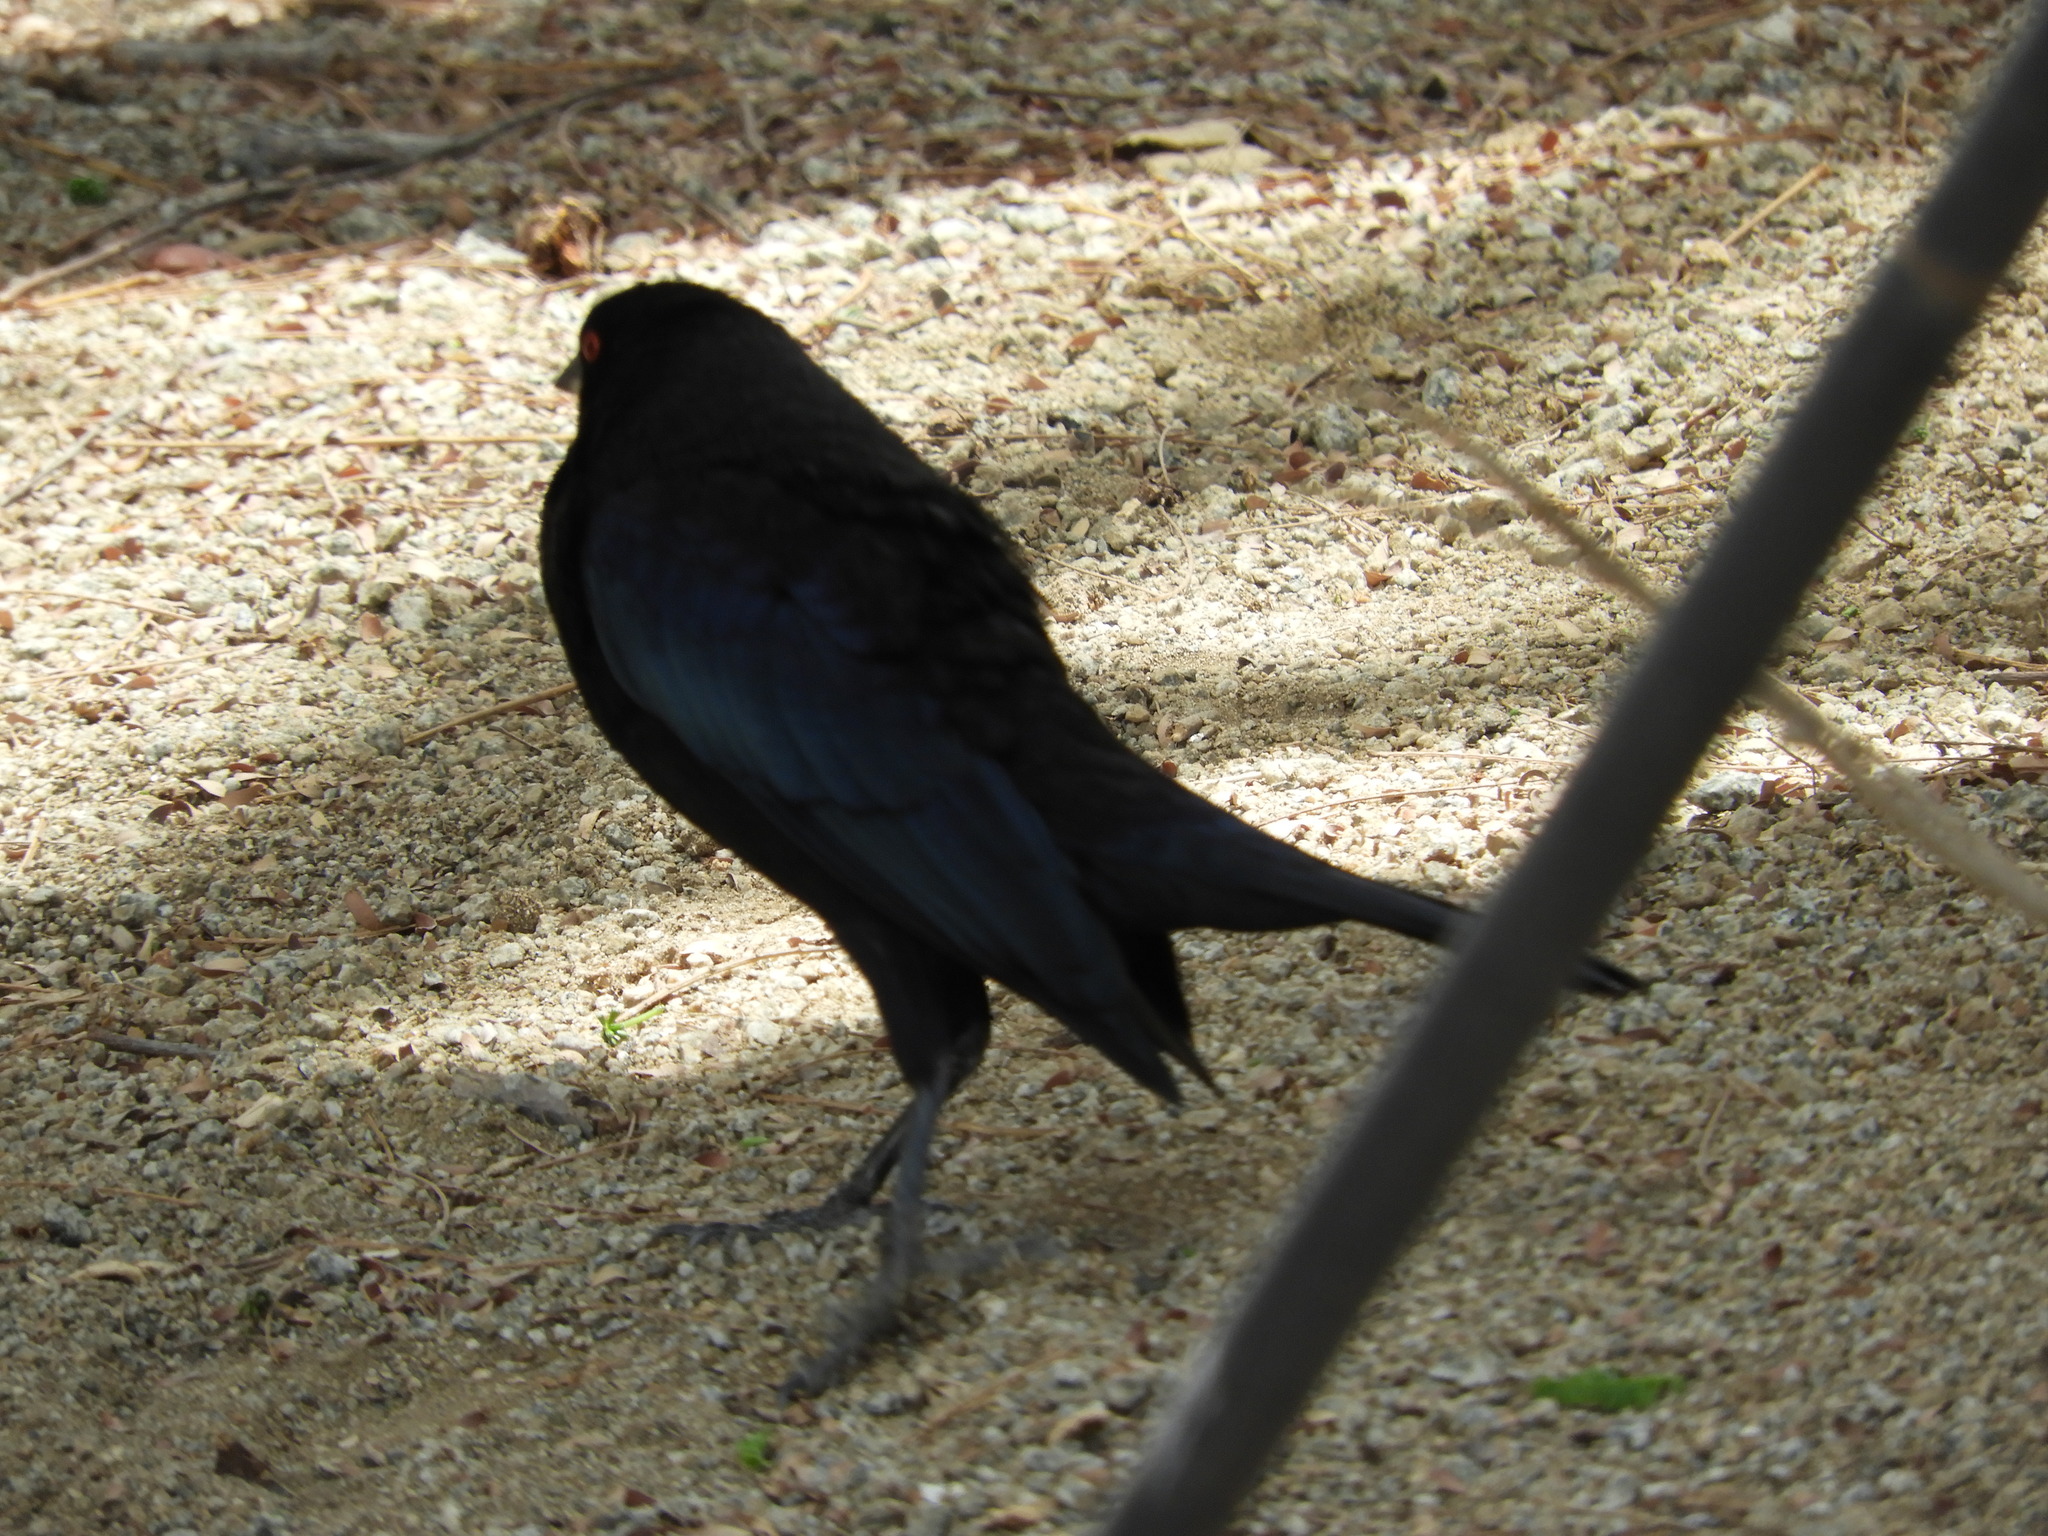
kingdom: Animalia
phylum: Chordata
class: Aves
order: Passeriformes
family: Icteridae
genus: Molothrus
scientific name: Molothrus aeneus
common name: Bronzed cowbird
